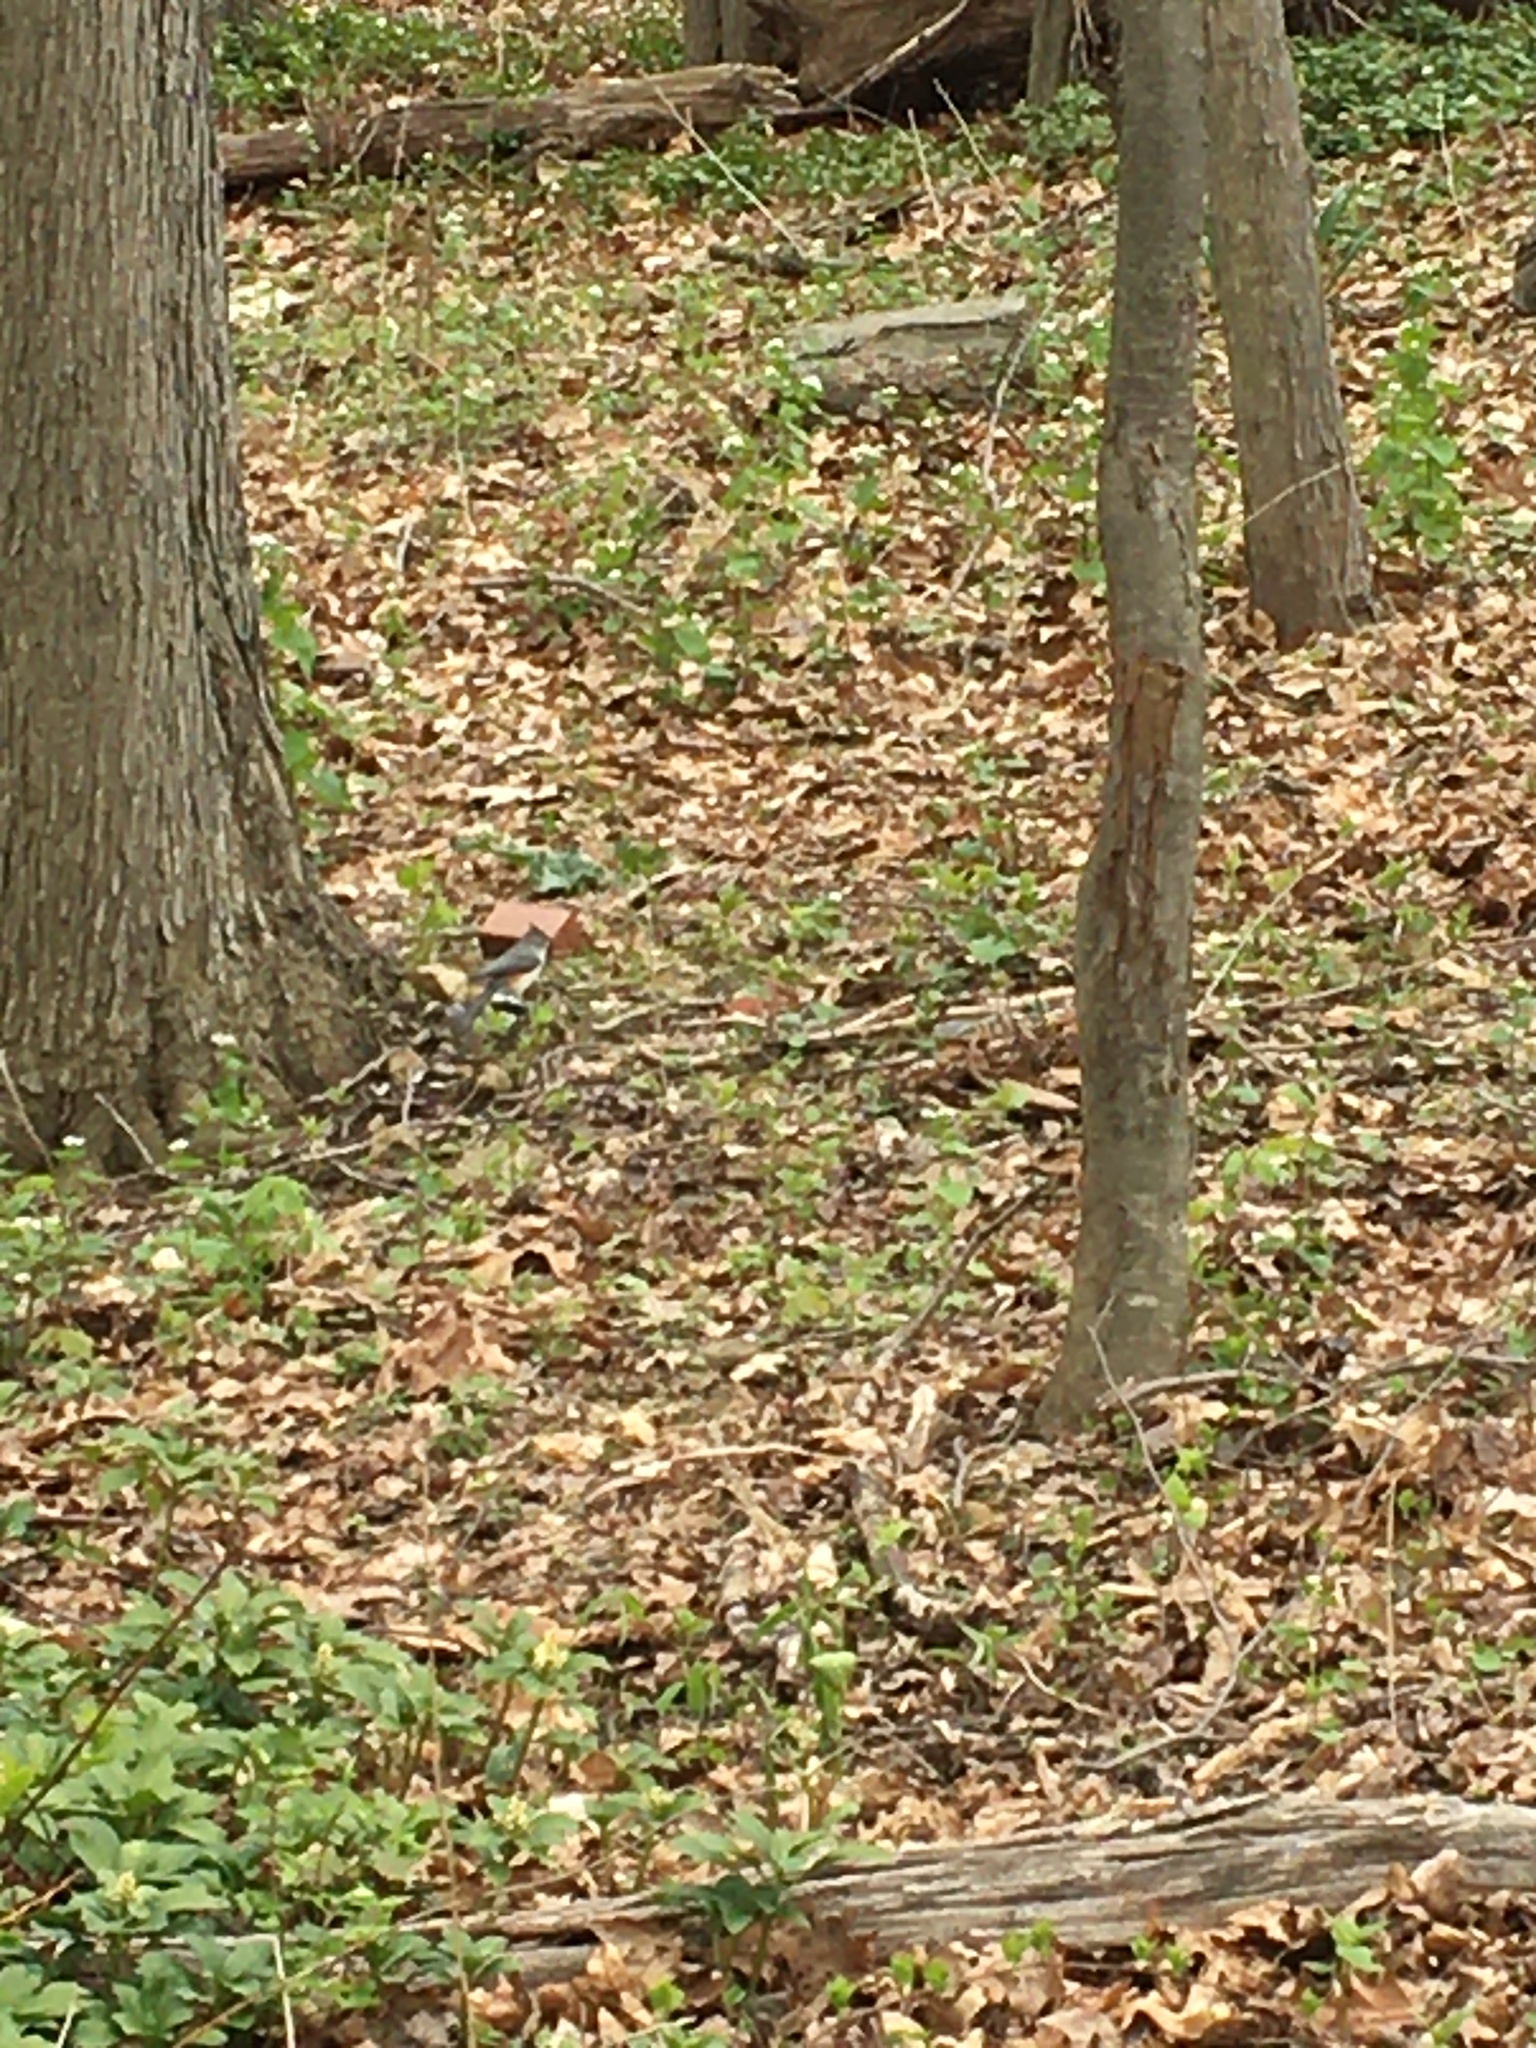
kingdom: Animalia
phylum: Chordata
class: Aves
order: Passeriformes
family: Paridae
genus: Baeolophus
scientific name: Baeolophus bicolor
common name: Tufted titmouse
